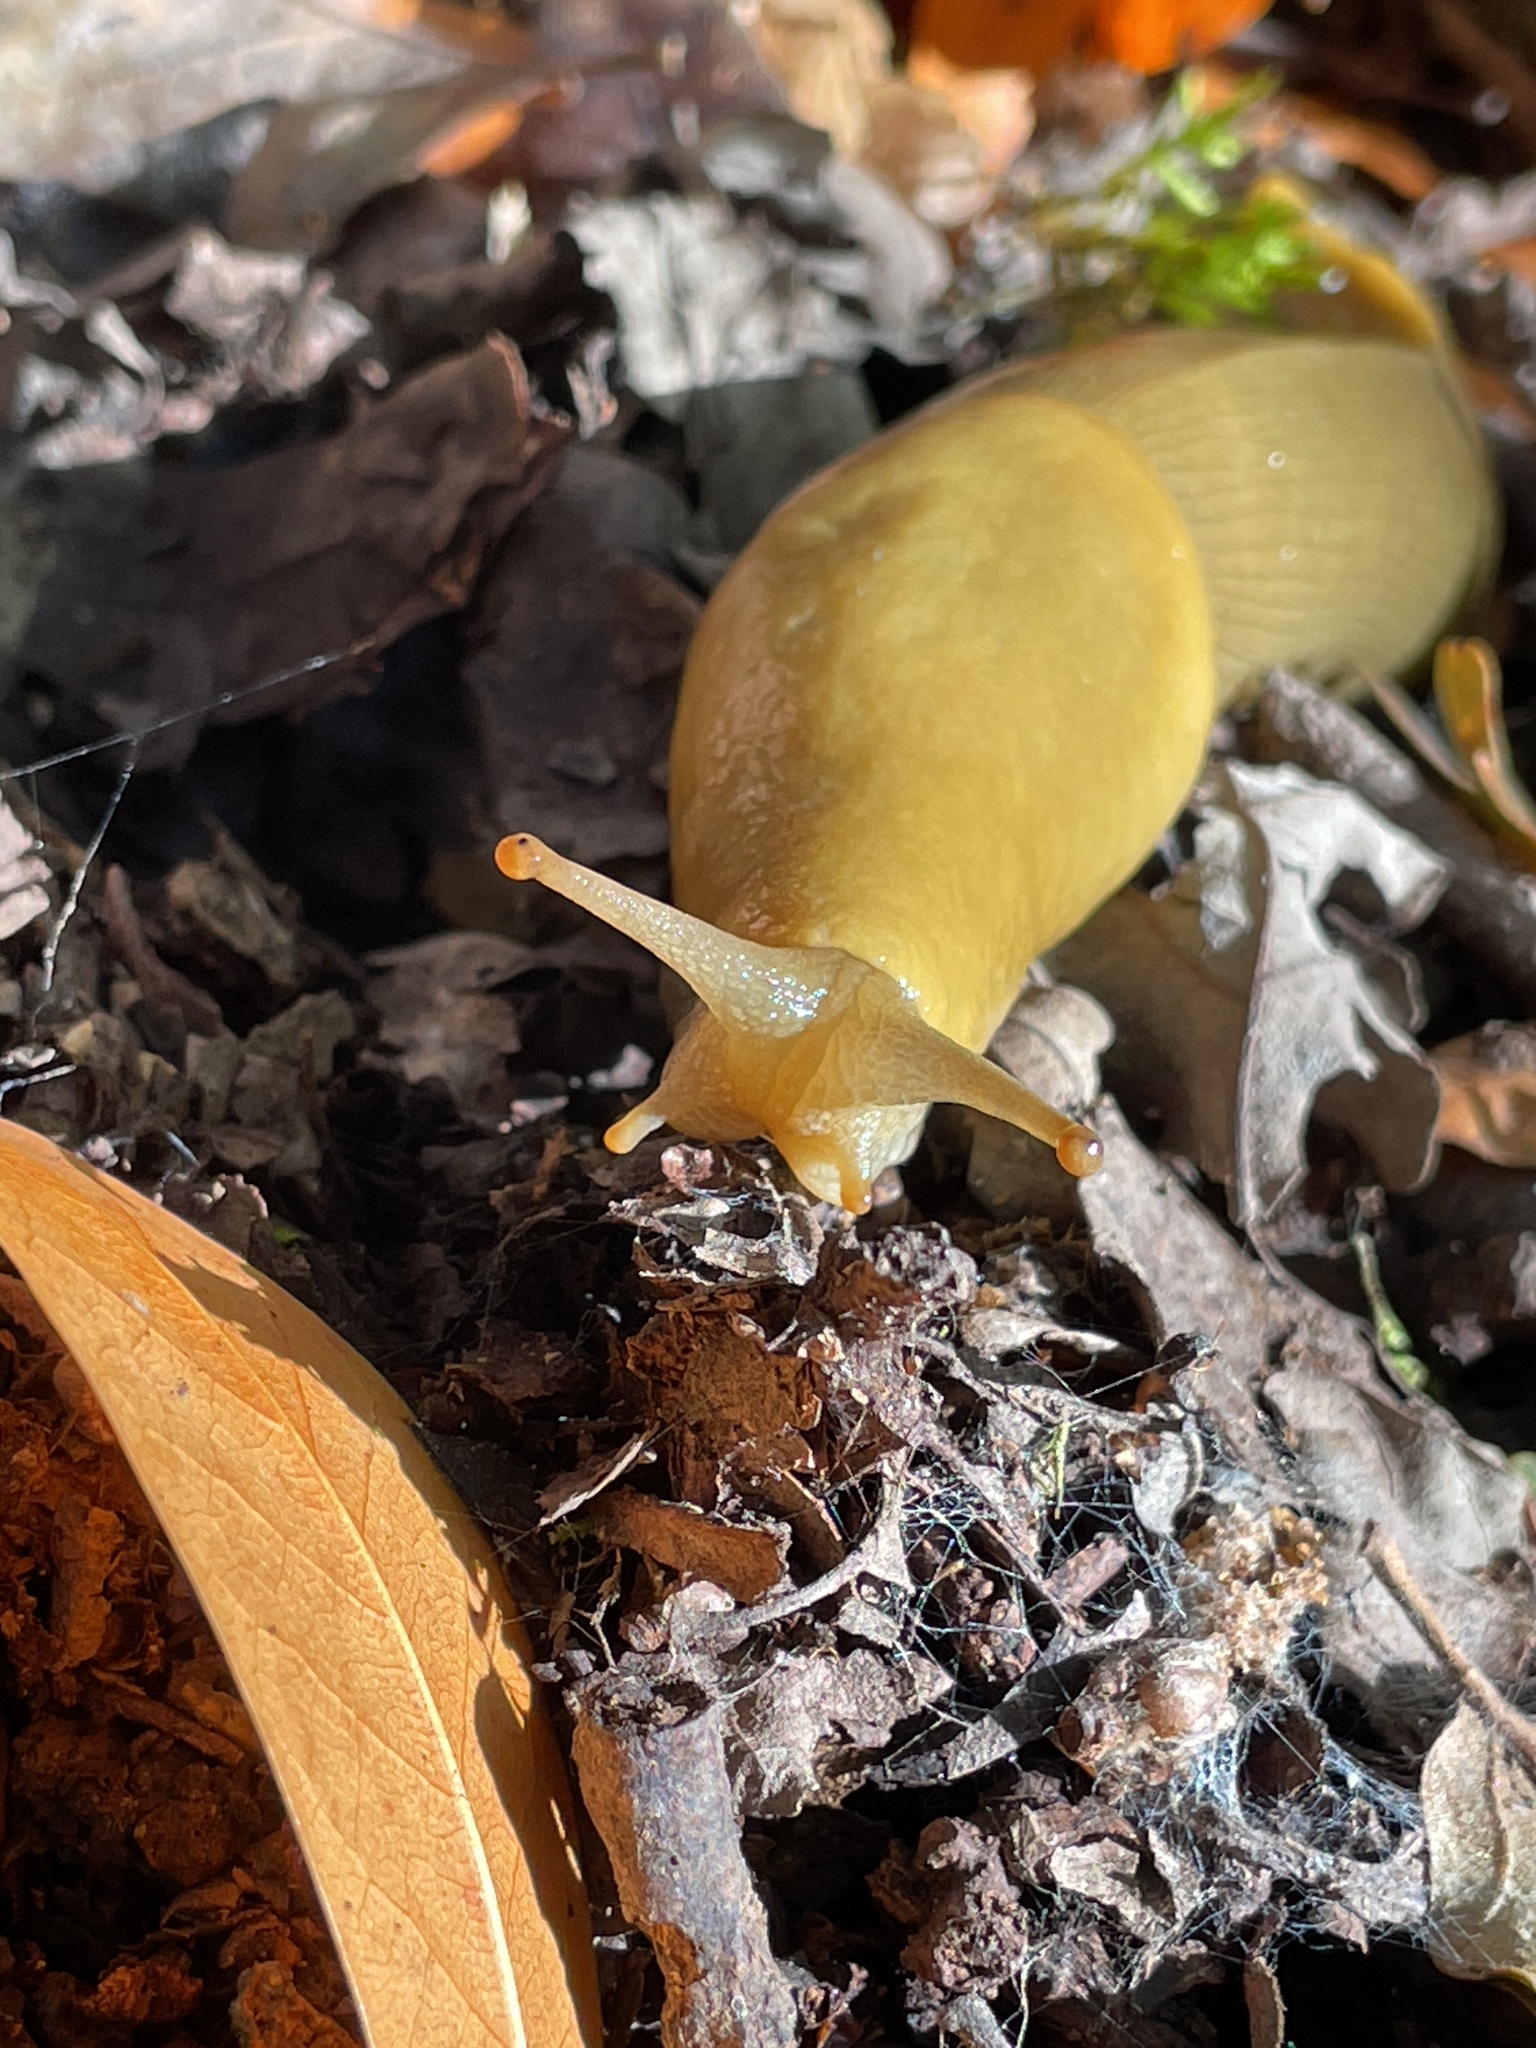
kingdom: Animalia
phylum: Mollusca
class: Gastropoda
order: Stylommatophora
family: Ariolimacidae
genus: Ariolimax
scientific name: Ariolimax buttoni
